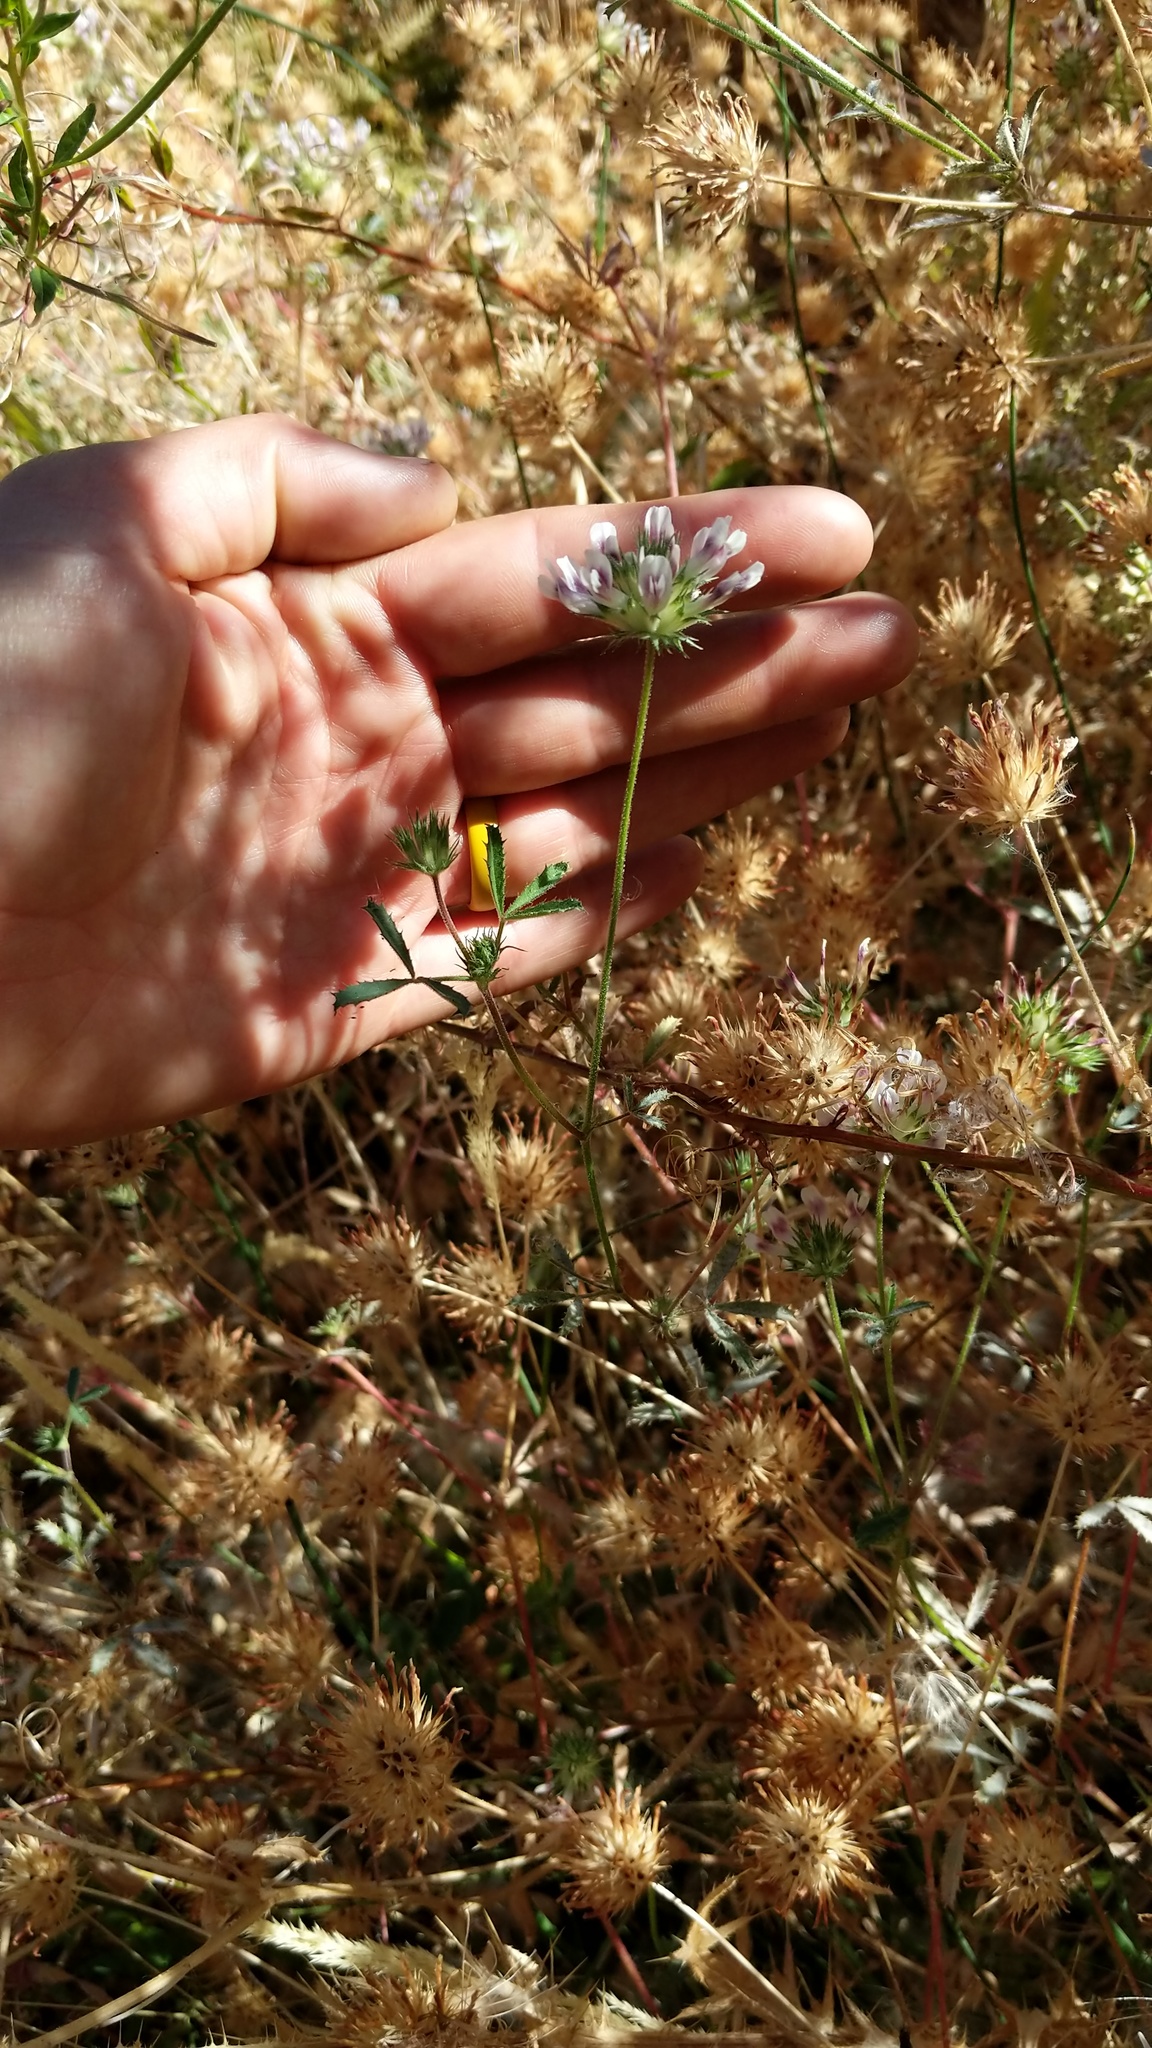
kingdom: Plantae
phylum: Tracheophyta
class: Magnoliopsida
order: Fabales
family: Fabaceae
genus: Trifolium
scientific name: Trifolium willdenovii
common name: Tomcat clover
